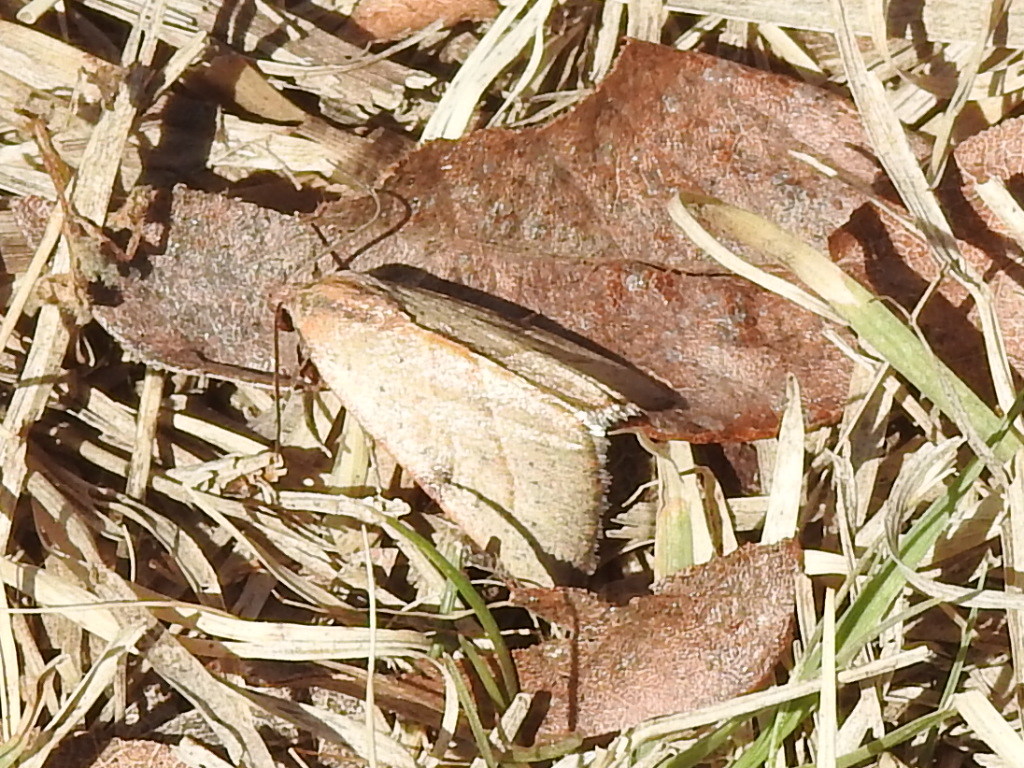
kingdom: Animalia
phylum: Arthropoda
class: Insecta
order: Lepidoptera
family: Noctuidae
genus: Galgula
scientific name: Galgula partita
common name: Wedgeling
